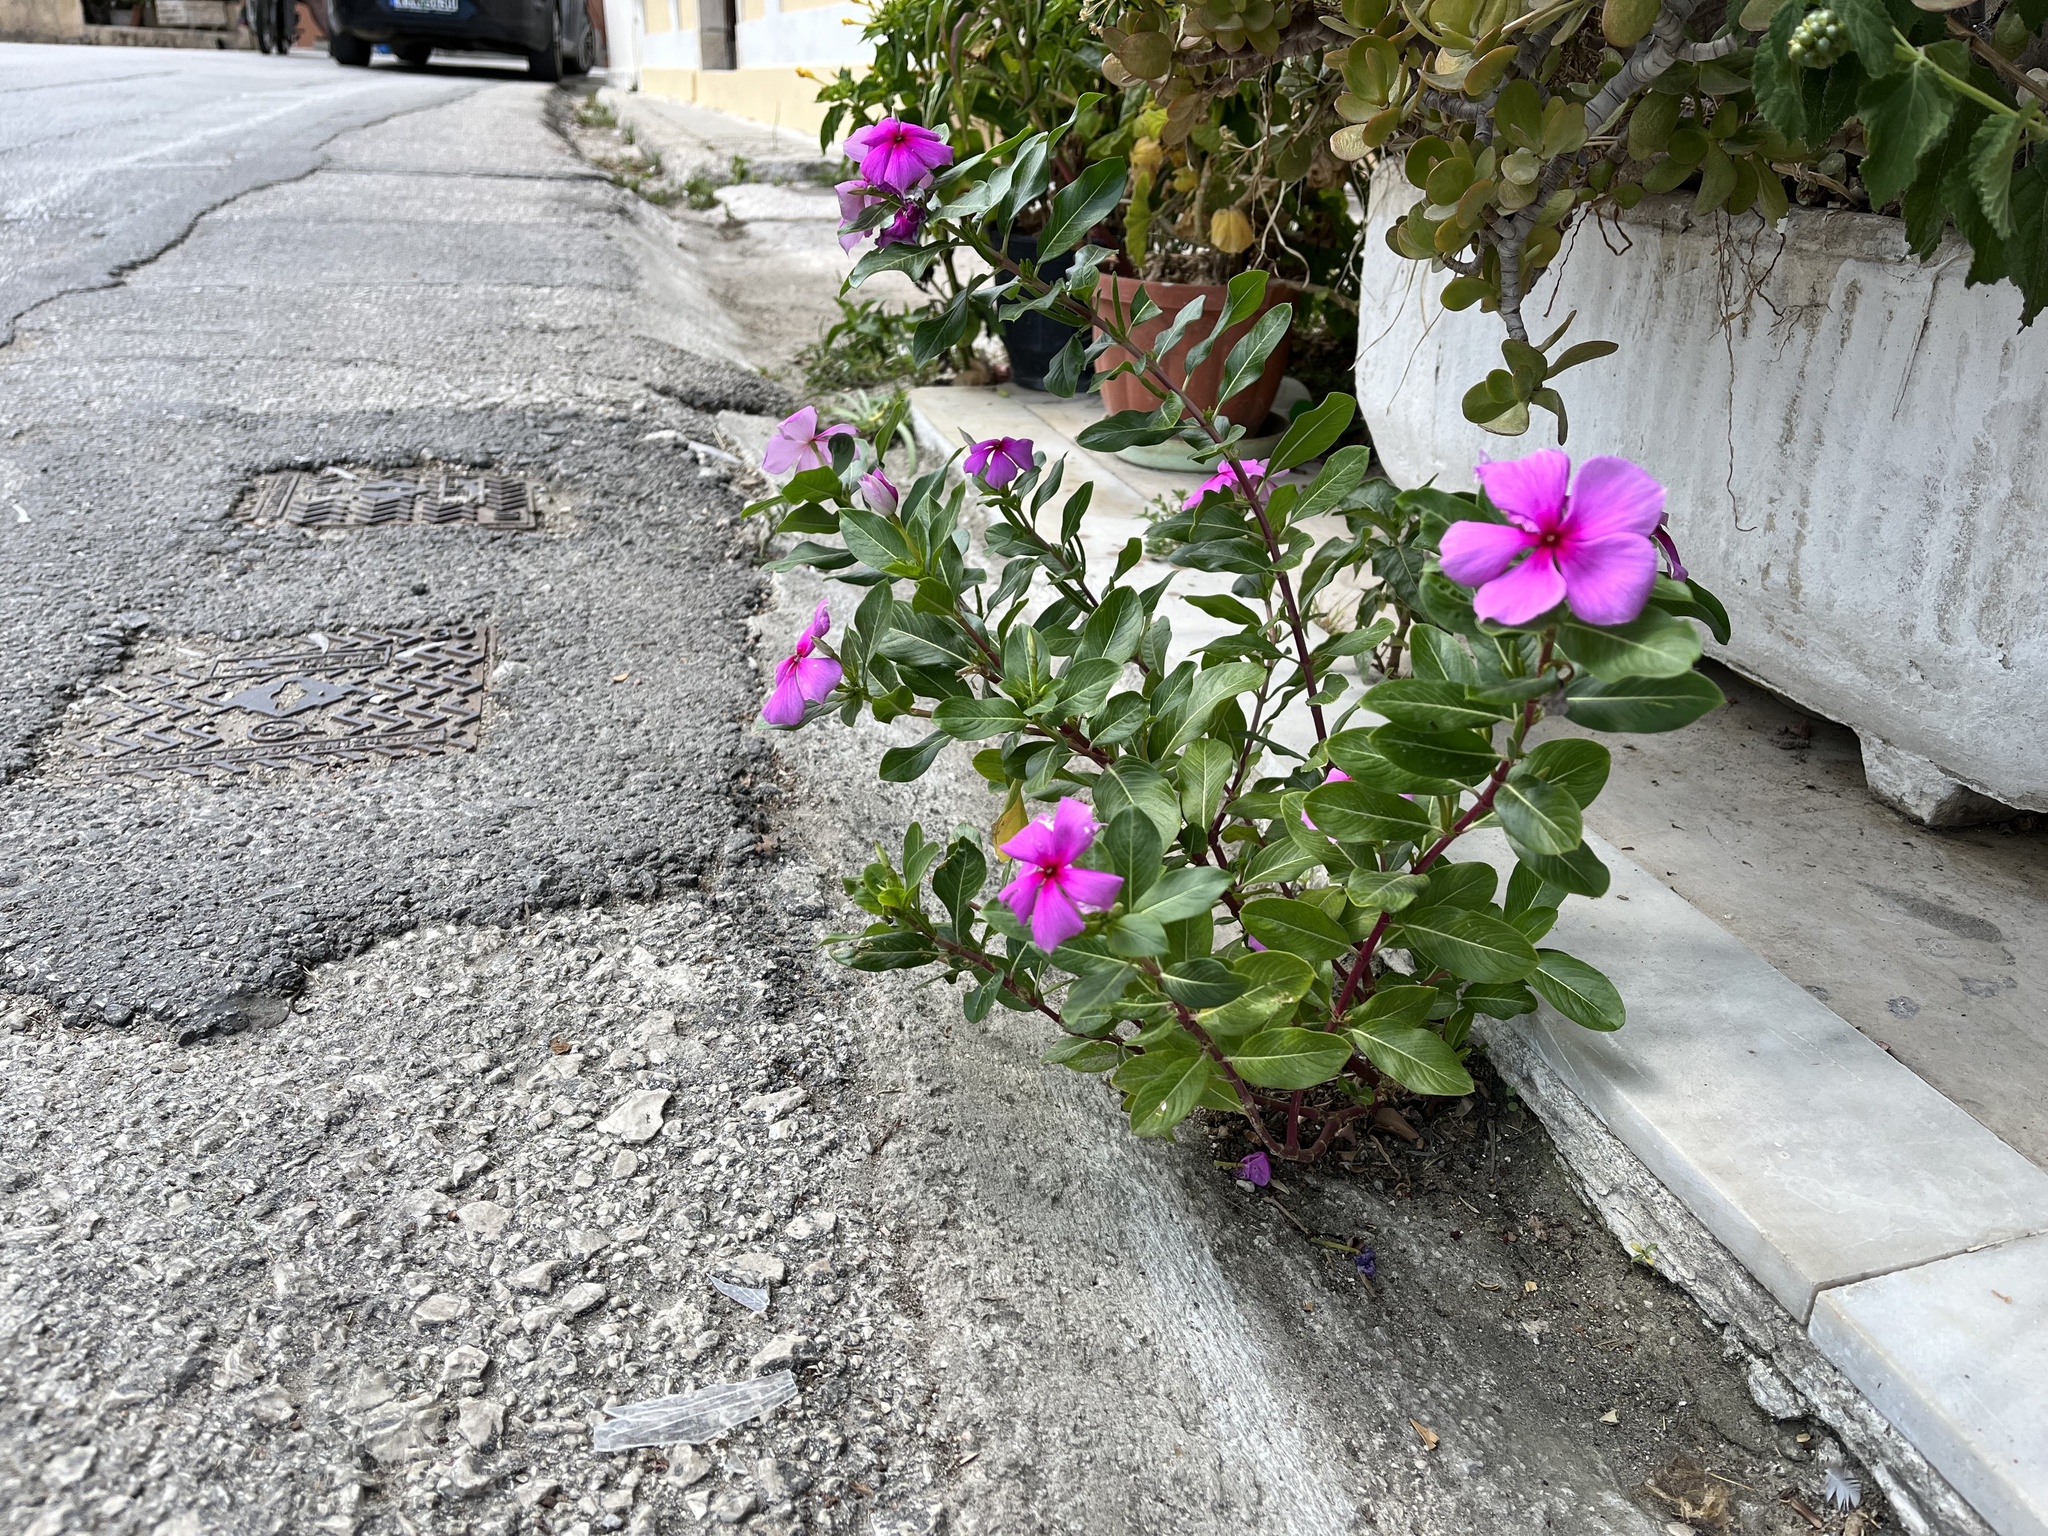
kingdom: Plantae
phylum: Tracheophyta
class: Magnoliopsida
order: Gentianales
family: Apocynaceae
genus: Catharanthus
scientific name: Catharanthus roseus
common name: Madagascar periwinkle
